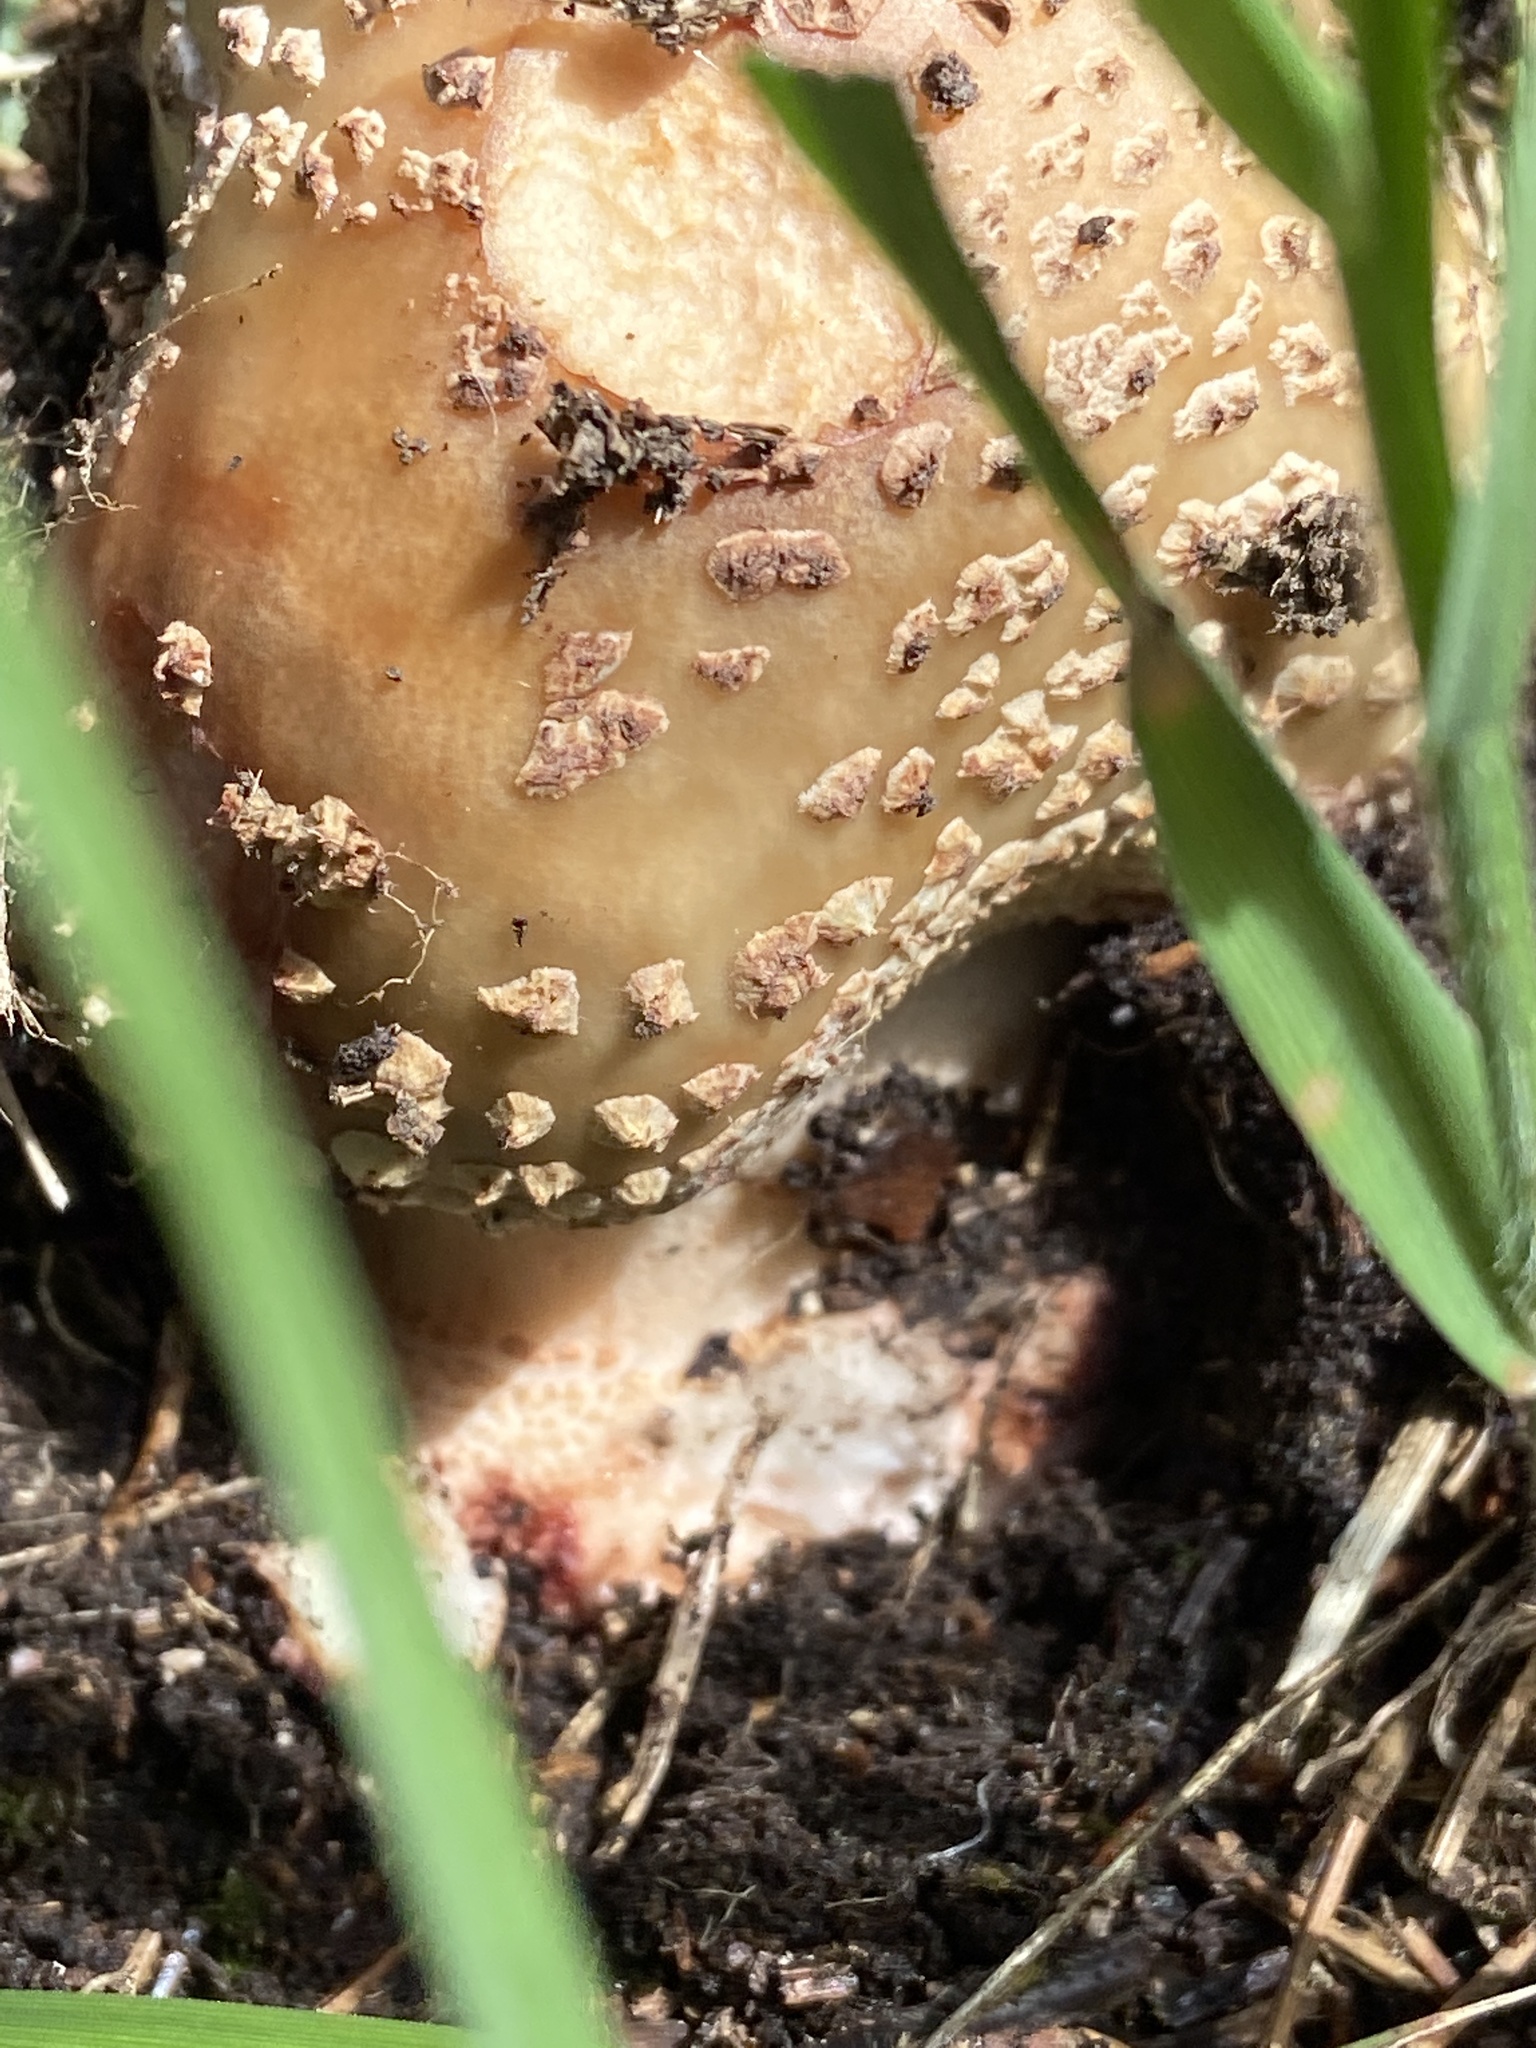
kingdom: Fungi
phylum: Basidiomycota
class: Agaricomycetes
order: Agaricales
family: Amanitaceae
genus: Amanita
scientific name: Amanita rubescens
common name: Blusher
